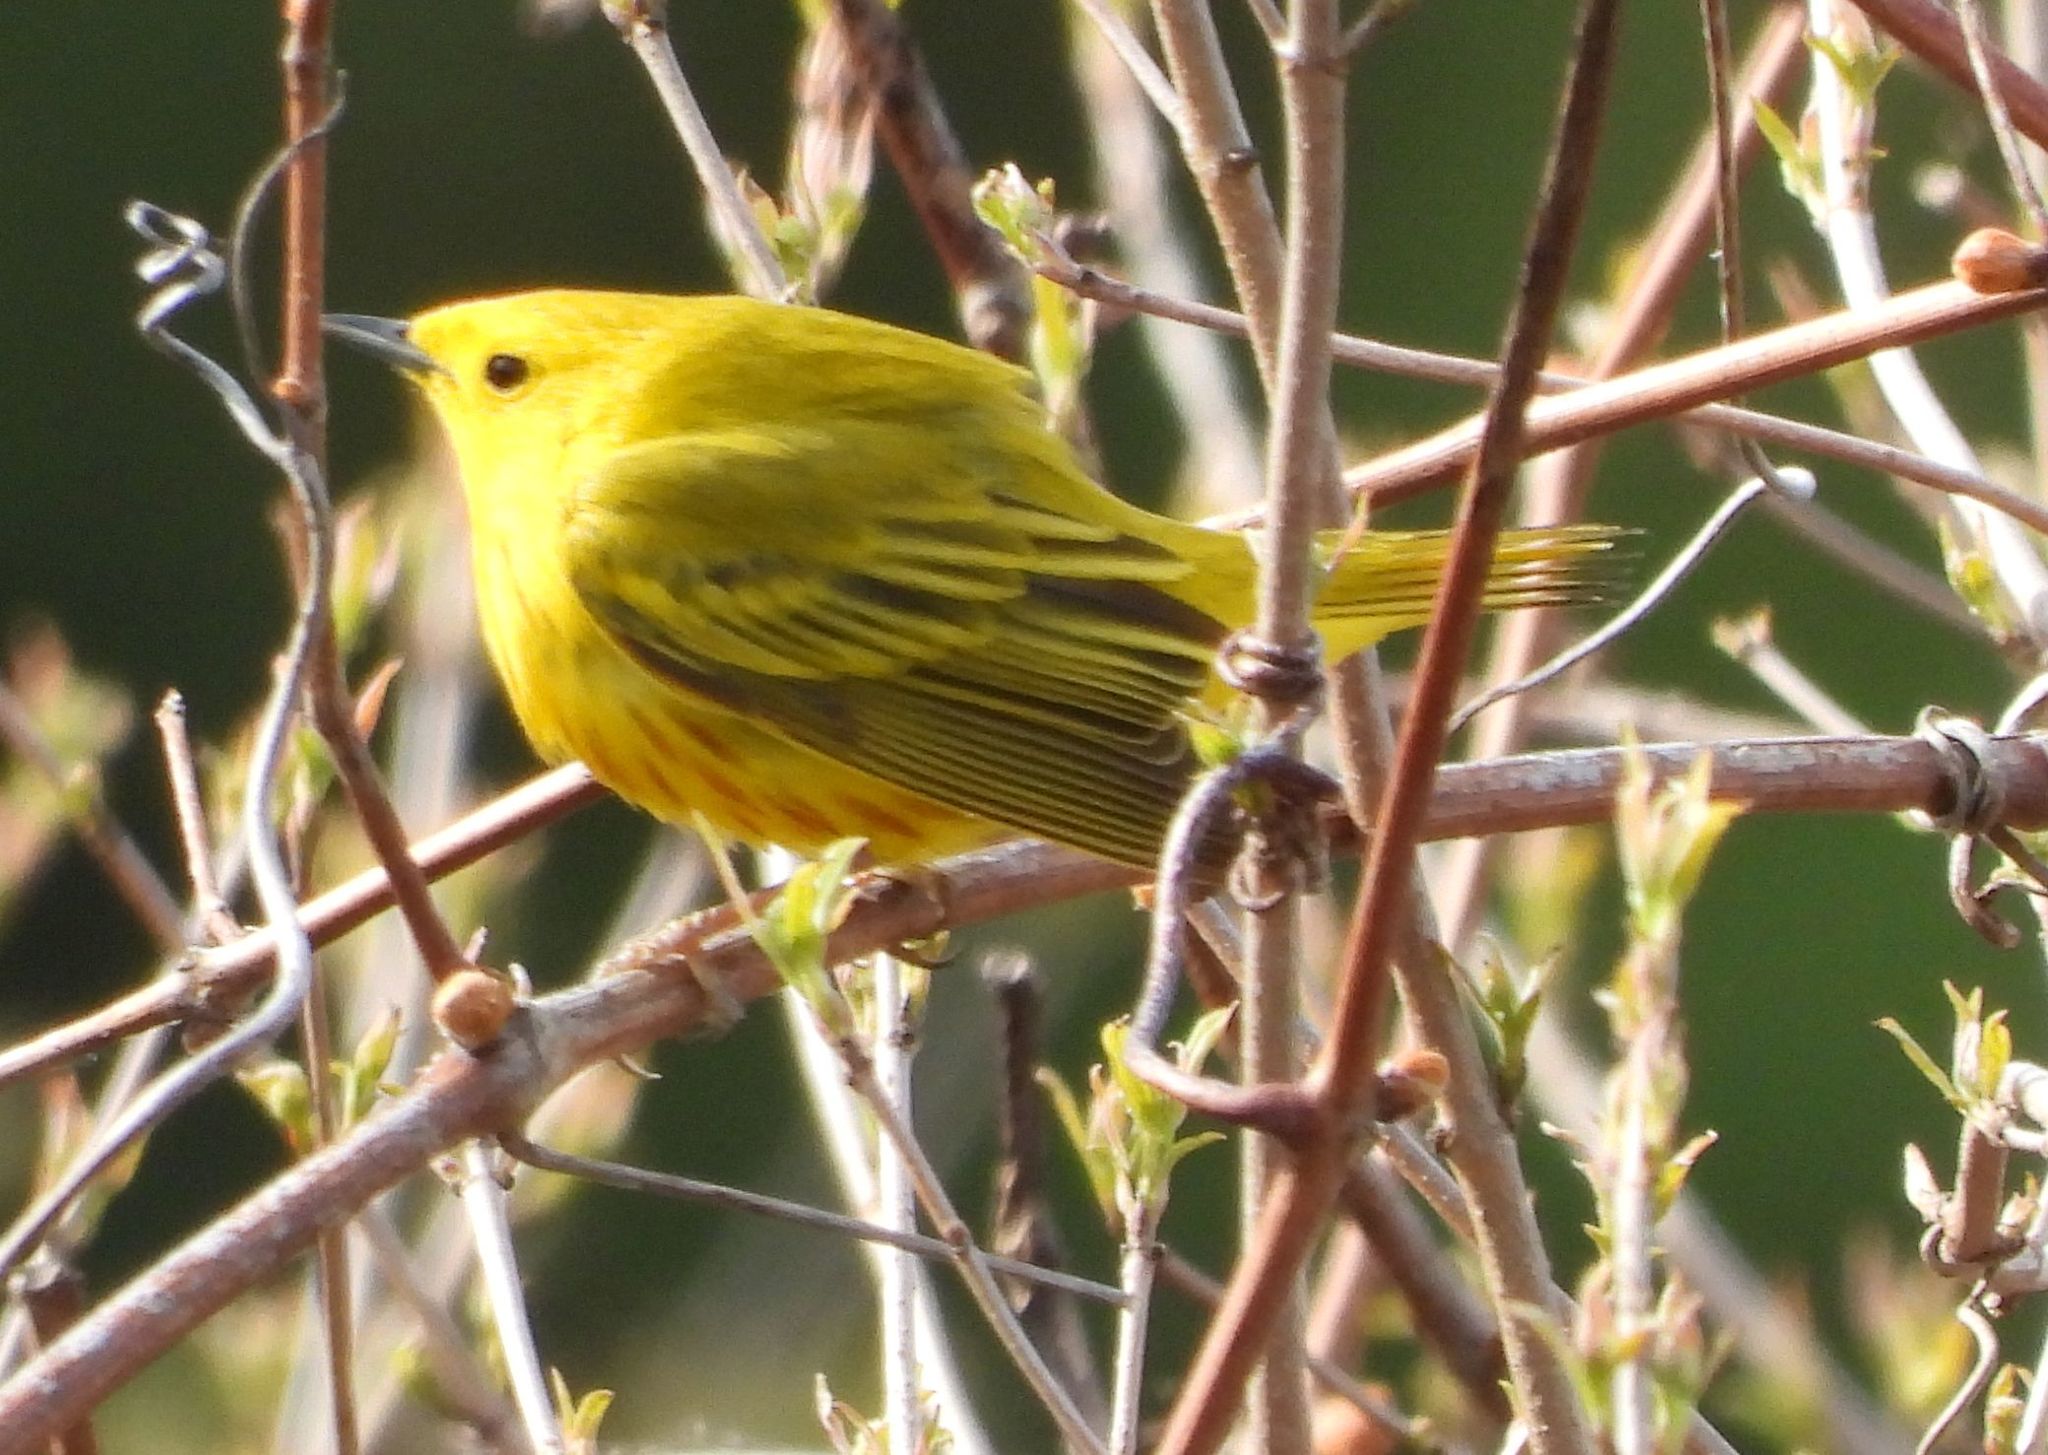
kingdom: Animalia
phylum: Chordata
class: Aves
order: Passeriformes
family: Parulidae
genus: Setophaga
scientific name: Setophaga petechia
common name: Yellow warbler
